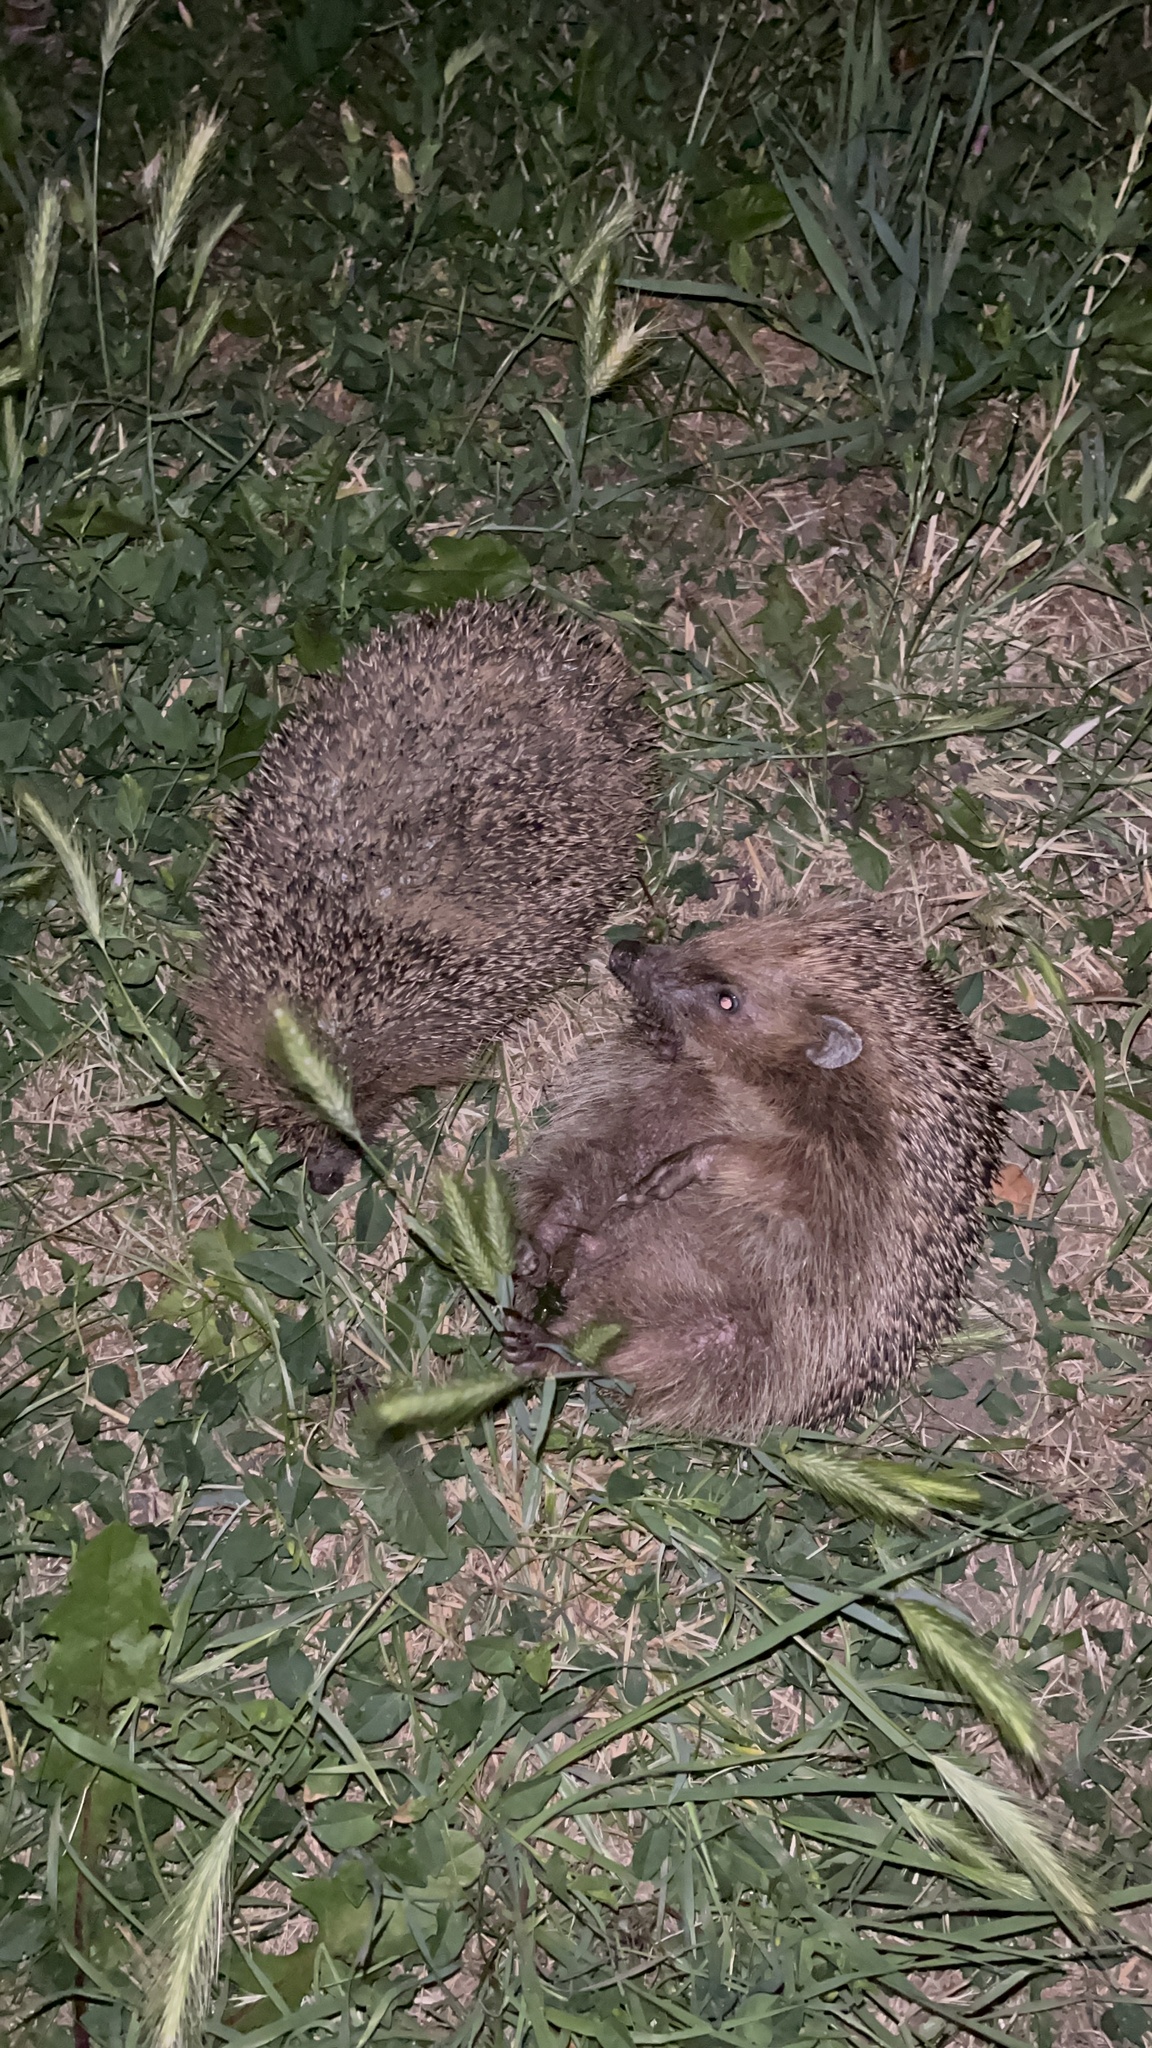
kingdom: Animalia
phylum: Chordata
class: Mammalia
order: Erinaceomorpha
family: Erinaceidae
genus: Erinaceus
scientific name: Erinaceus europaeus
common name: West european hedgehog
